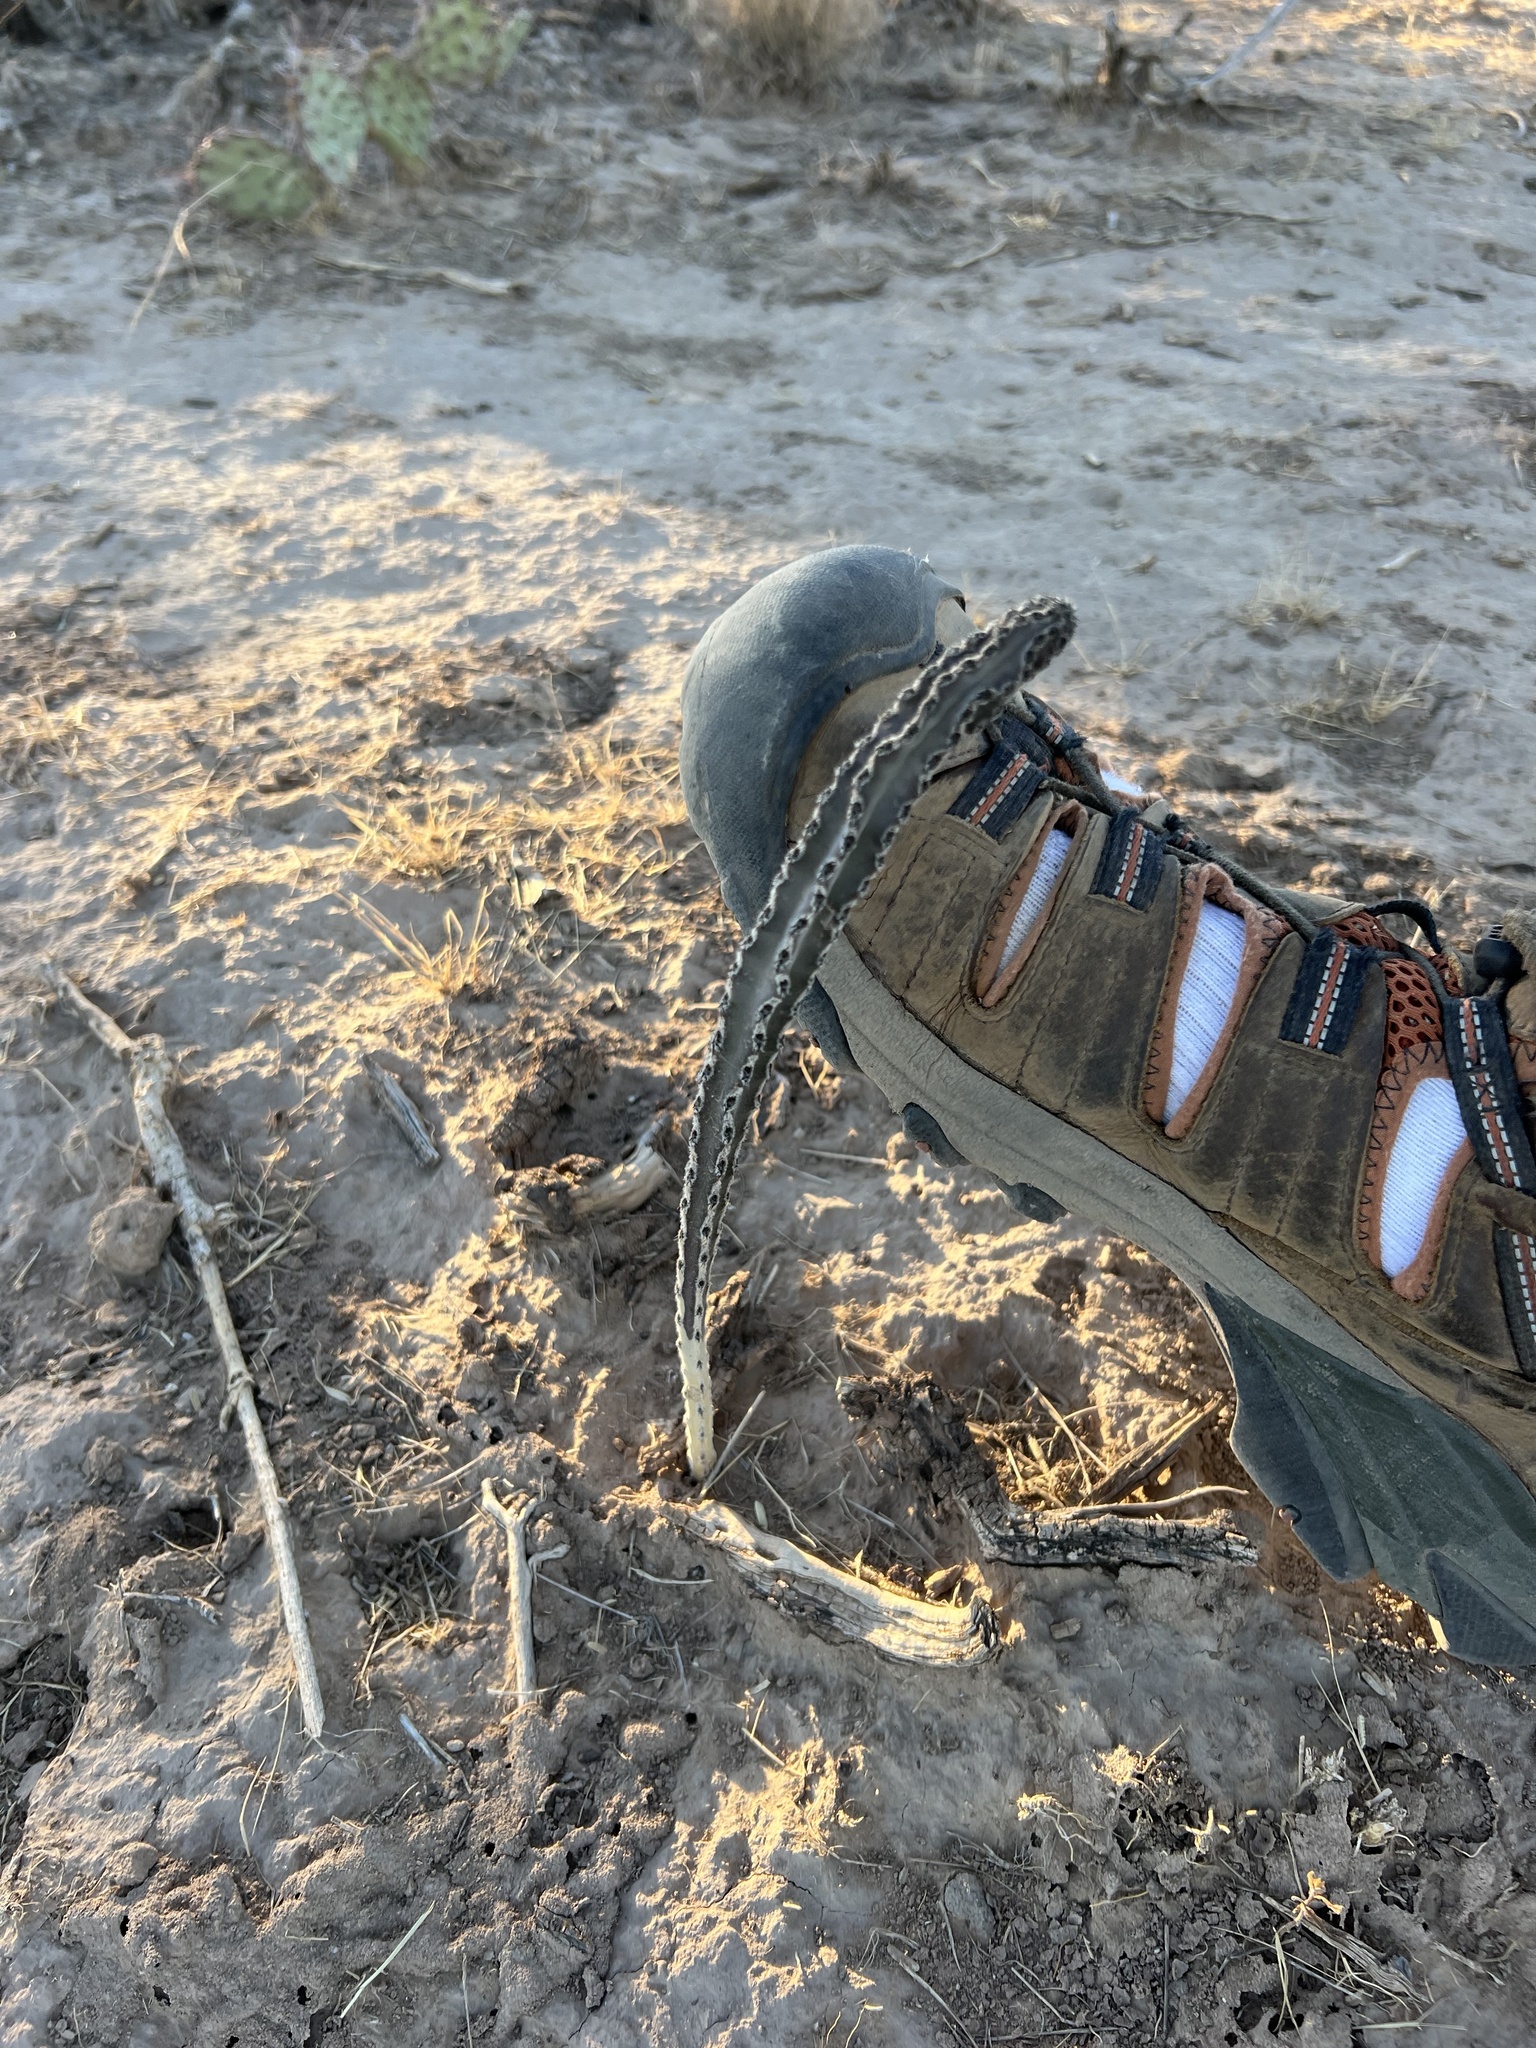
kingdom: Plantae
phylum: Tracheophyta
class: Magnoliopsida
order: Caryophyllales
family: Cactaceae
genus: Peniocereus
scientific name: Peniocereus greggii
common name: Desert night-blooming cereus
